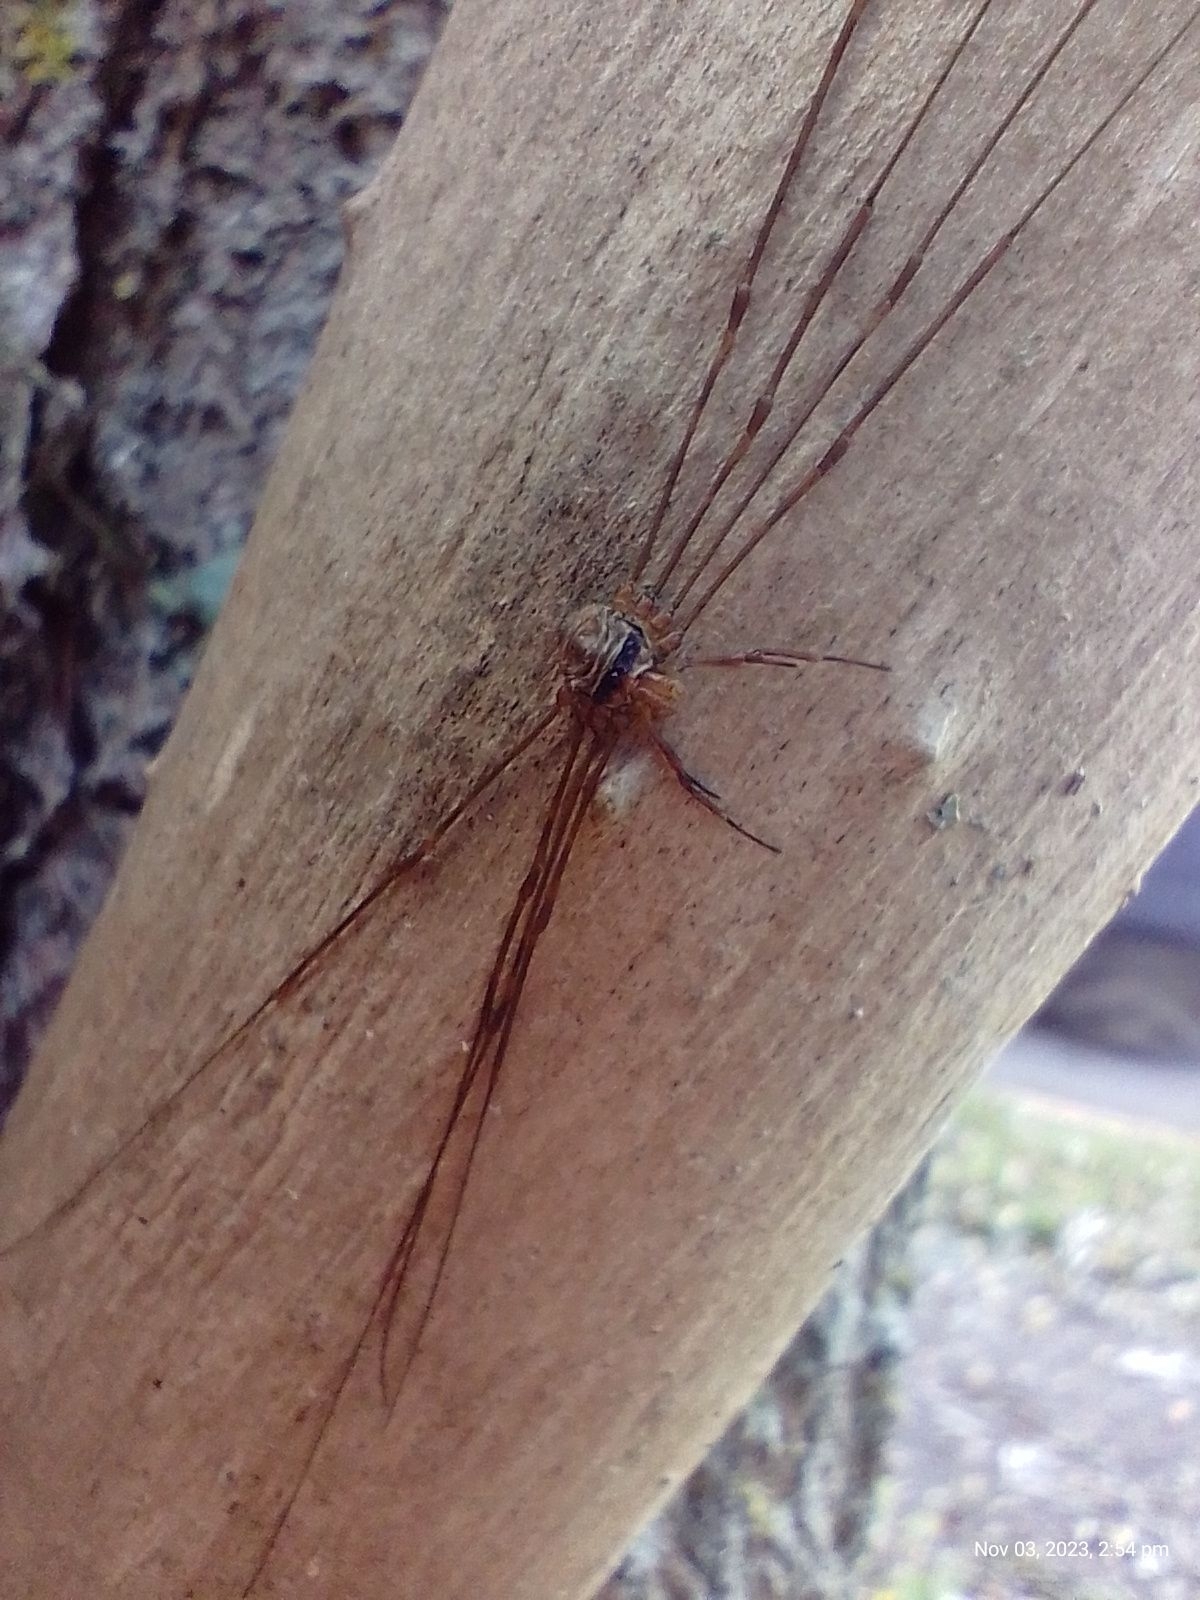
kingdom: Animalia
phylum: Arthropoda
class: Arachnida
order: Opiliones
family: Phalangiidae
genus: Dicranopalpus
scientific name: Dicranopalpus
